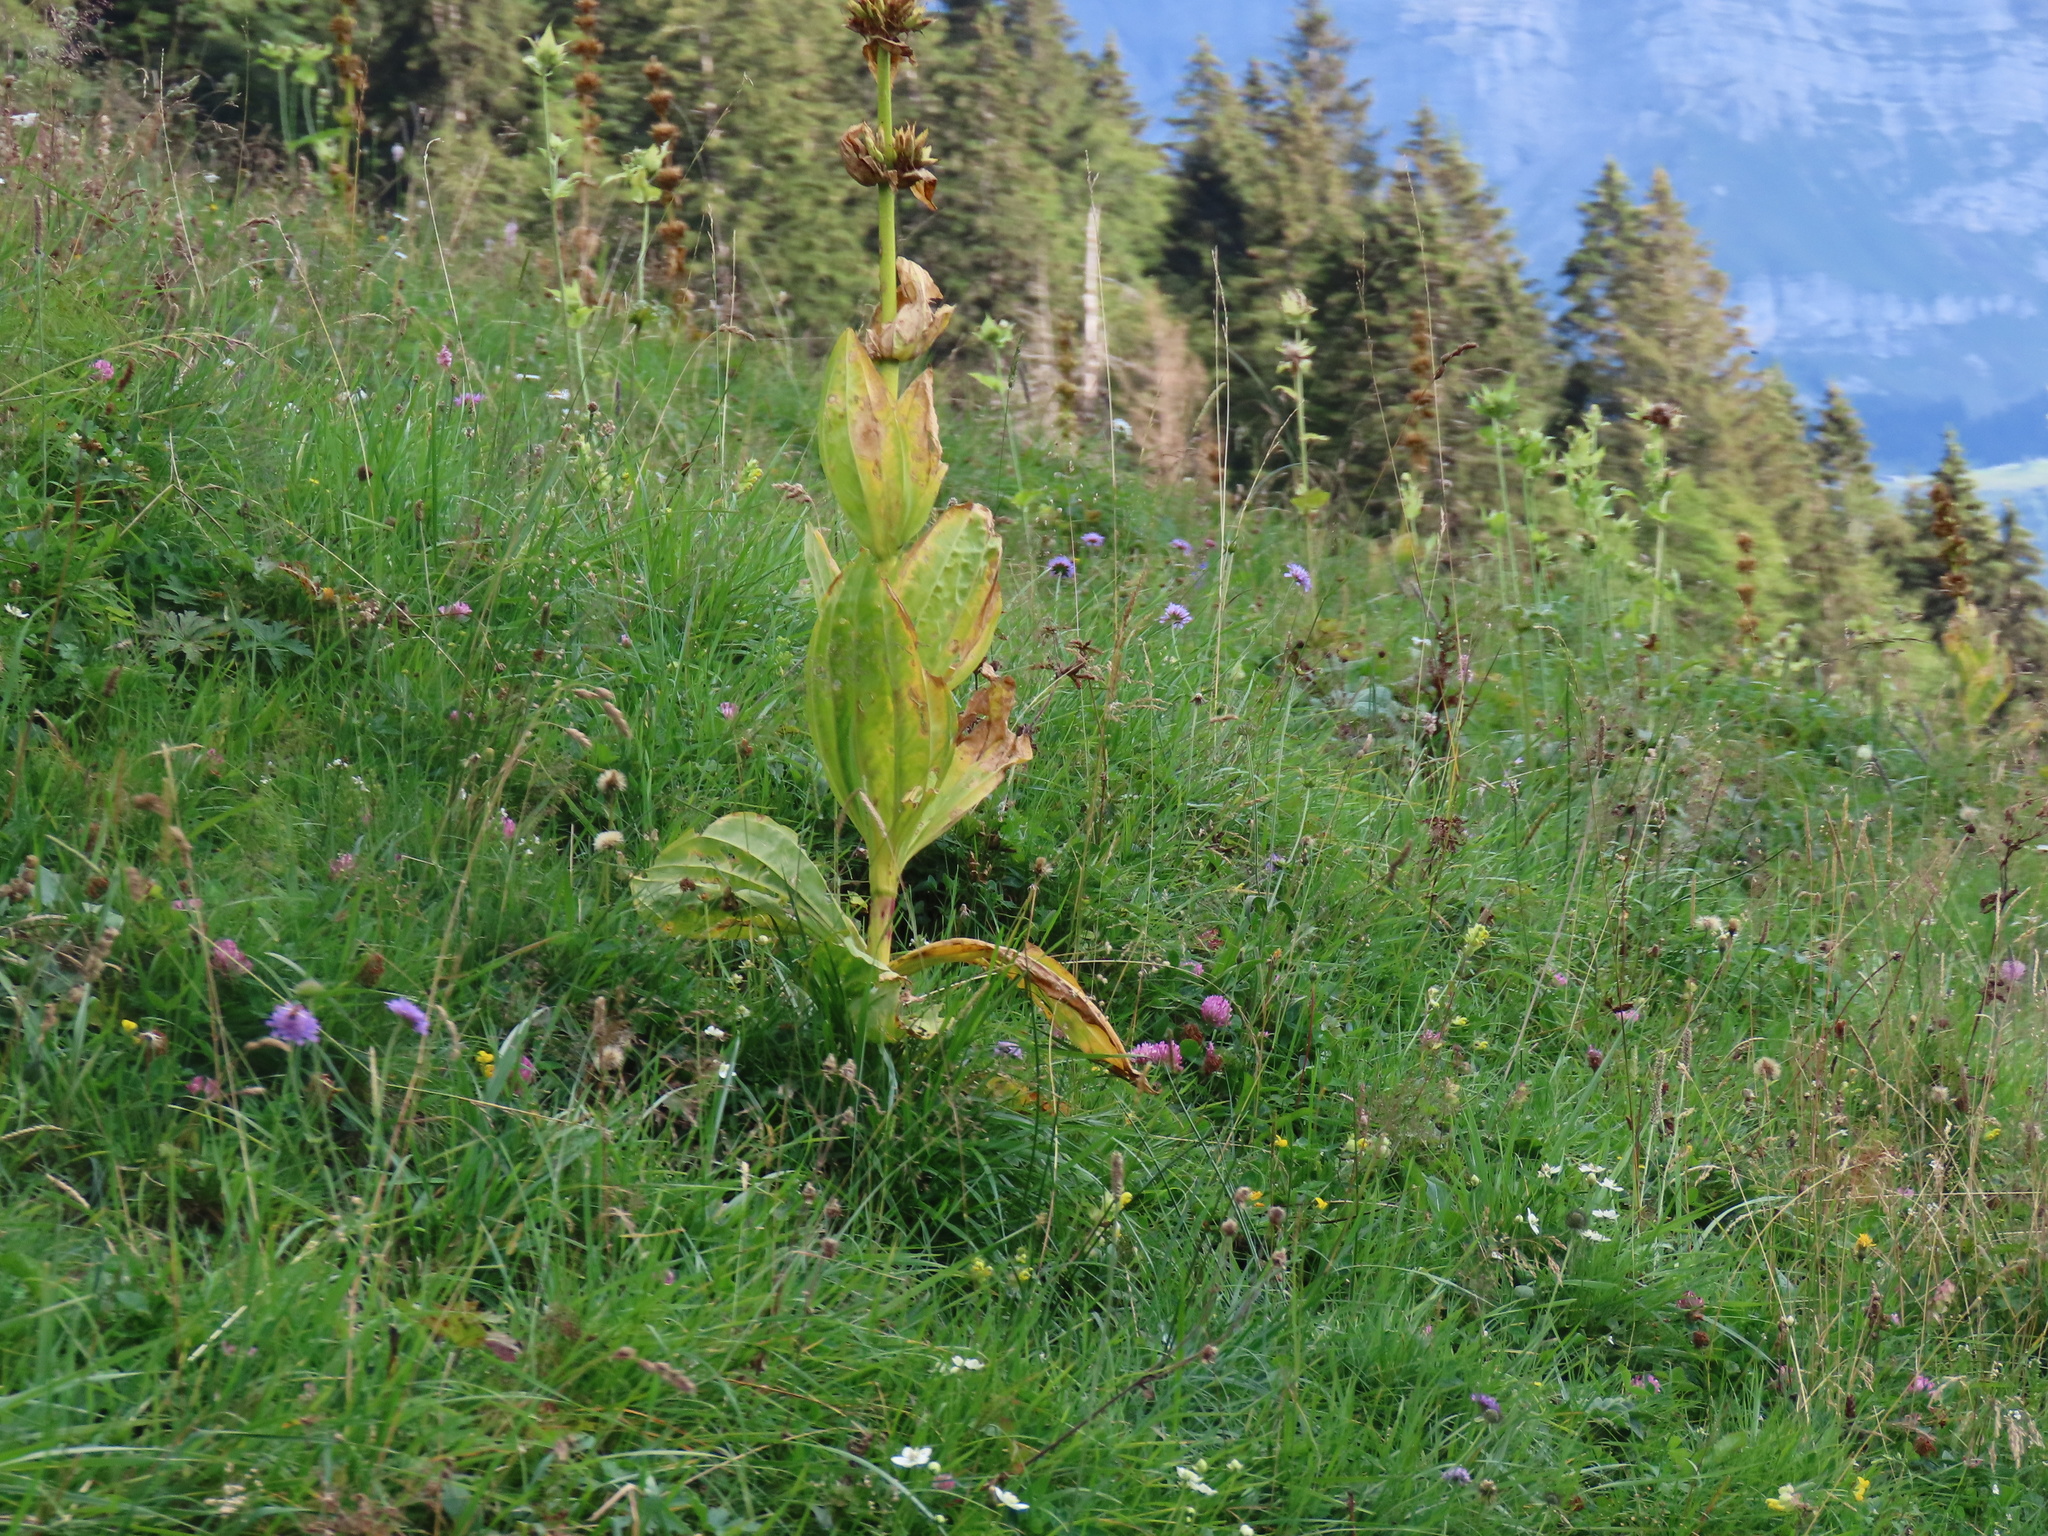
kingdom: Plantae
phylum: Tracheophyta
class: Magnoliopsida
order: Gentianales
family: Gentianaceae
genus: Gentiana
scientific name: Gentiana lutea
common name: Great yellow gentian
